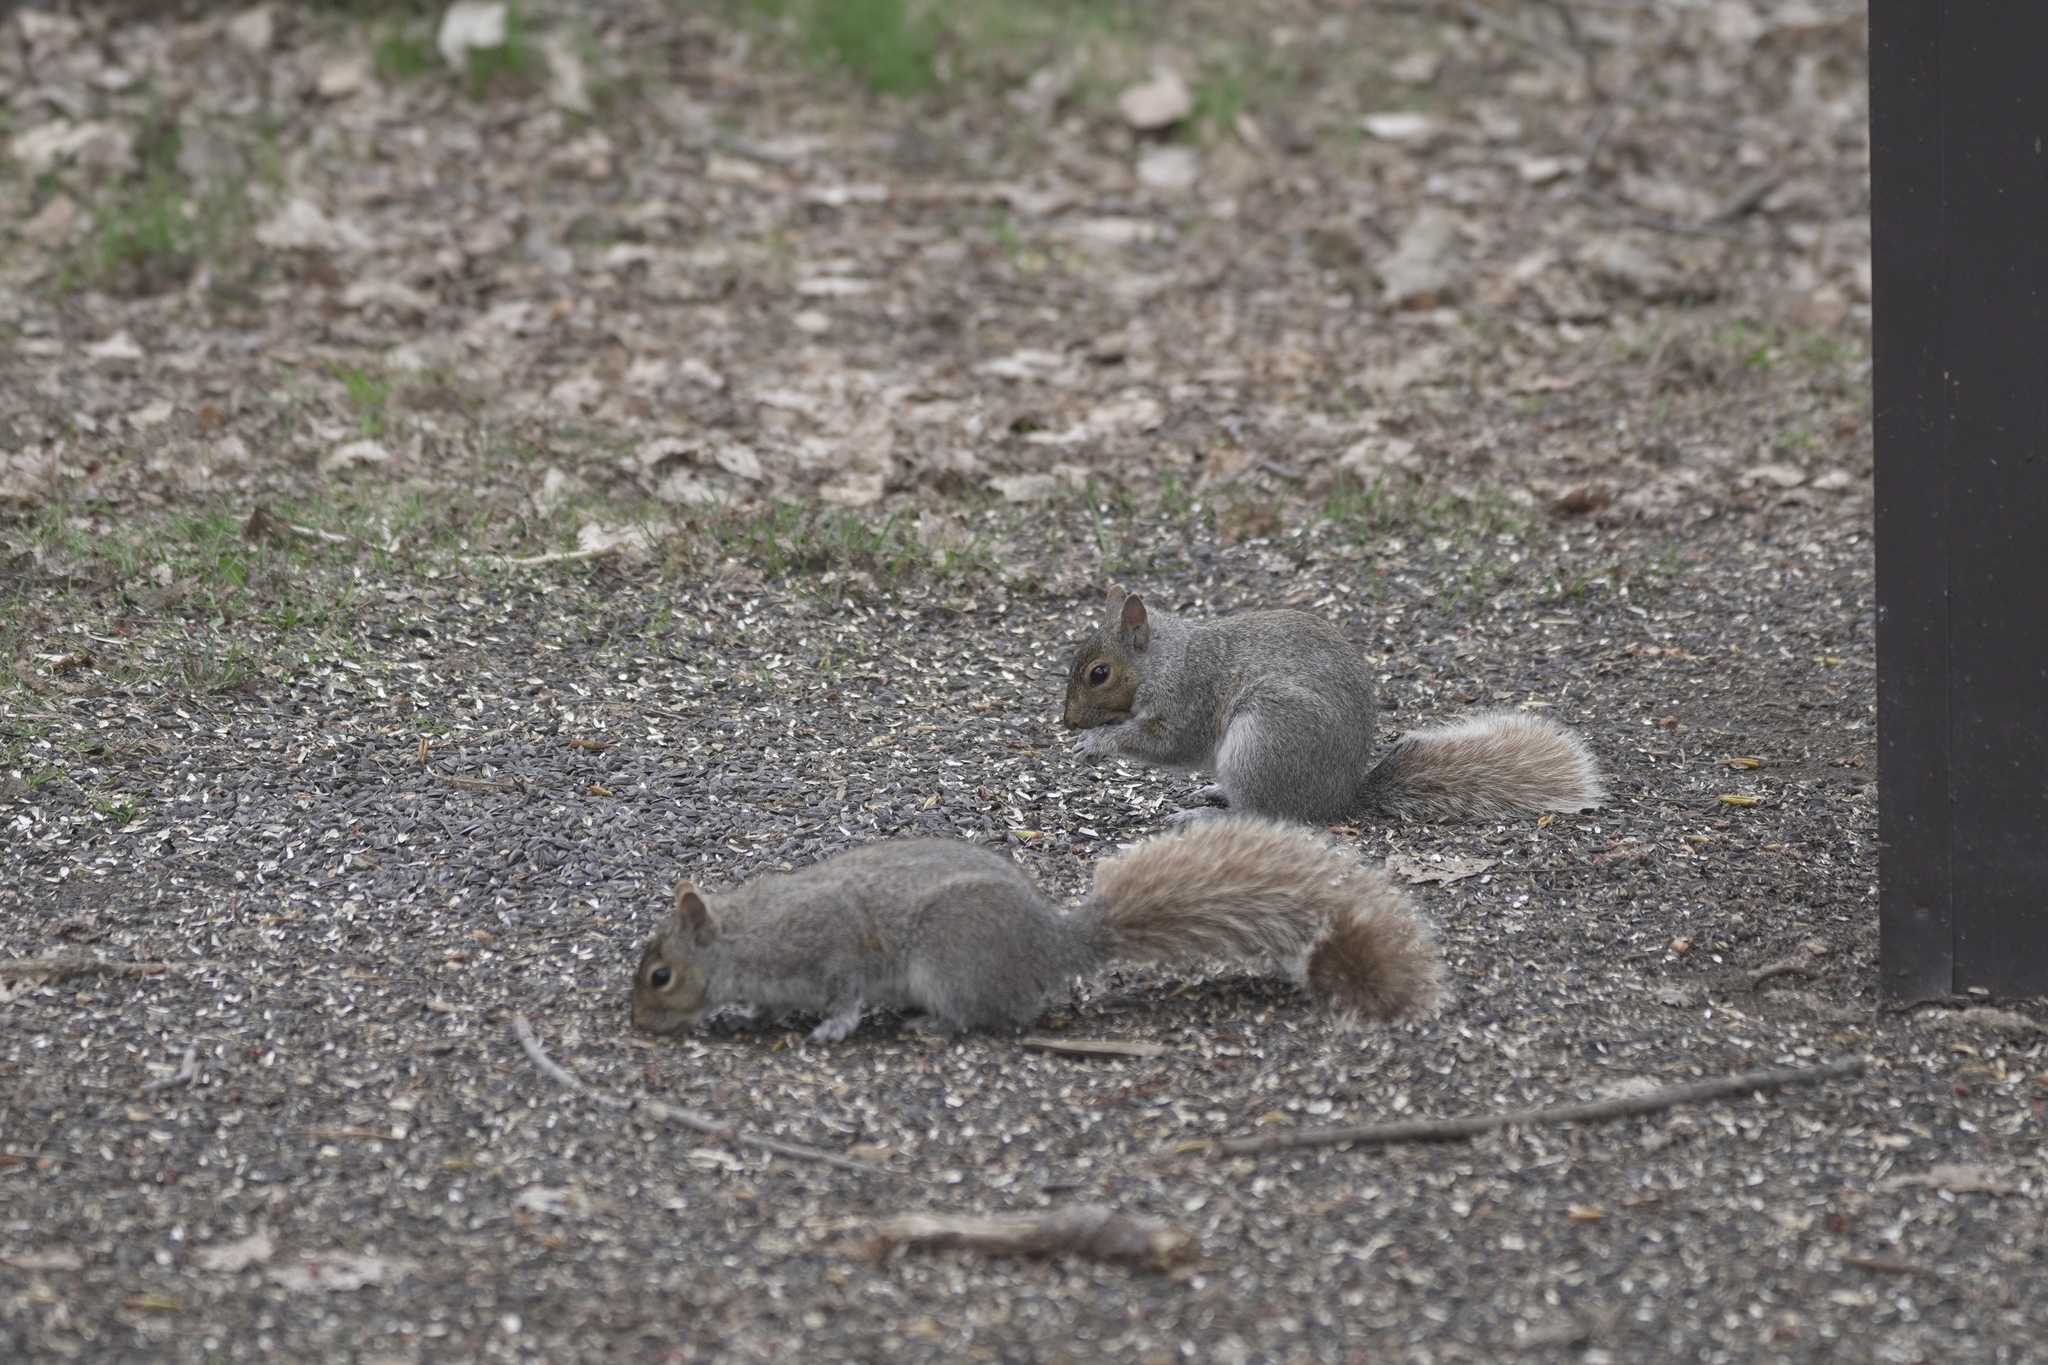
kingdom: Animalia
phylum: Chordata
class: Mammalia
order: Rodentia
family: Sciuridae
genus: Sciurus
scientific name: Sciurus carolinensis
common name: Eastern gray squirrel
